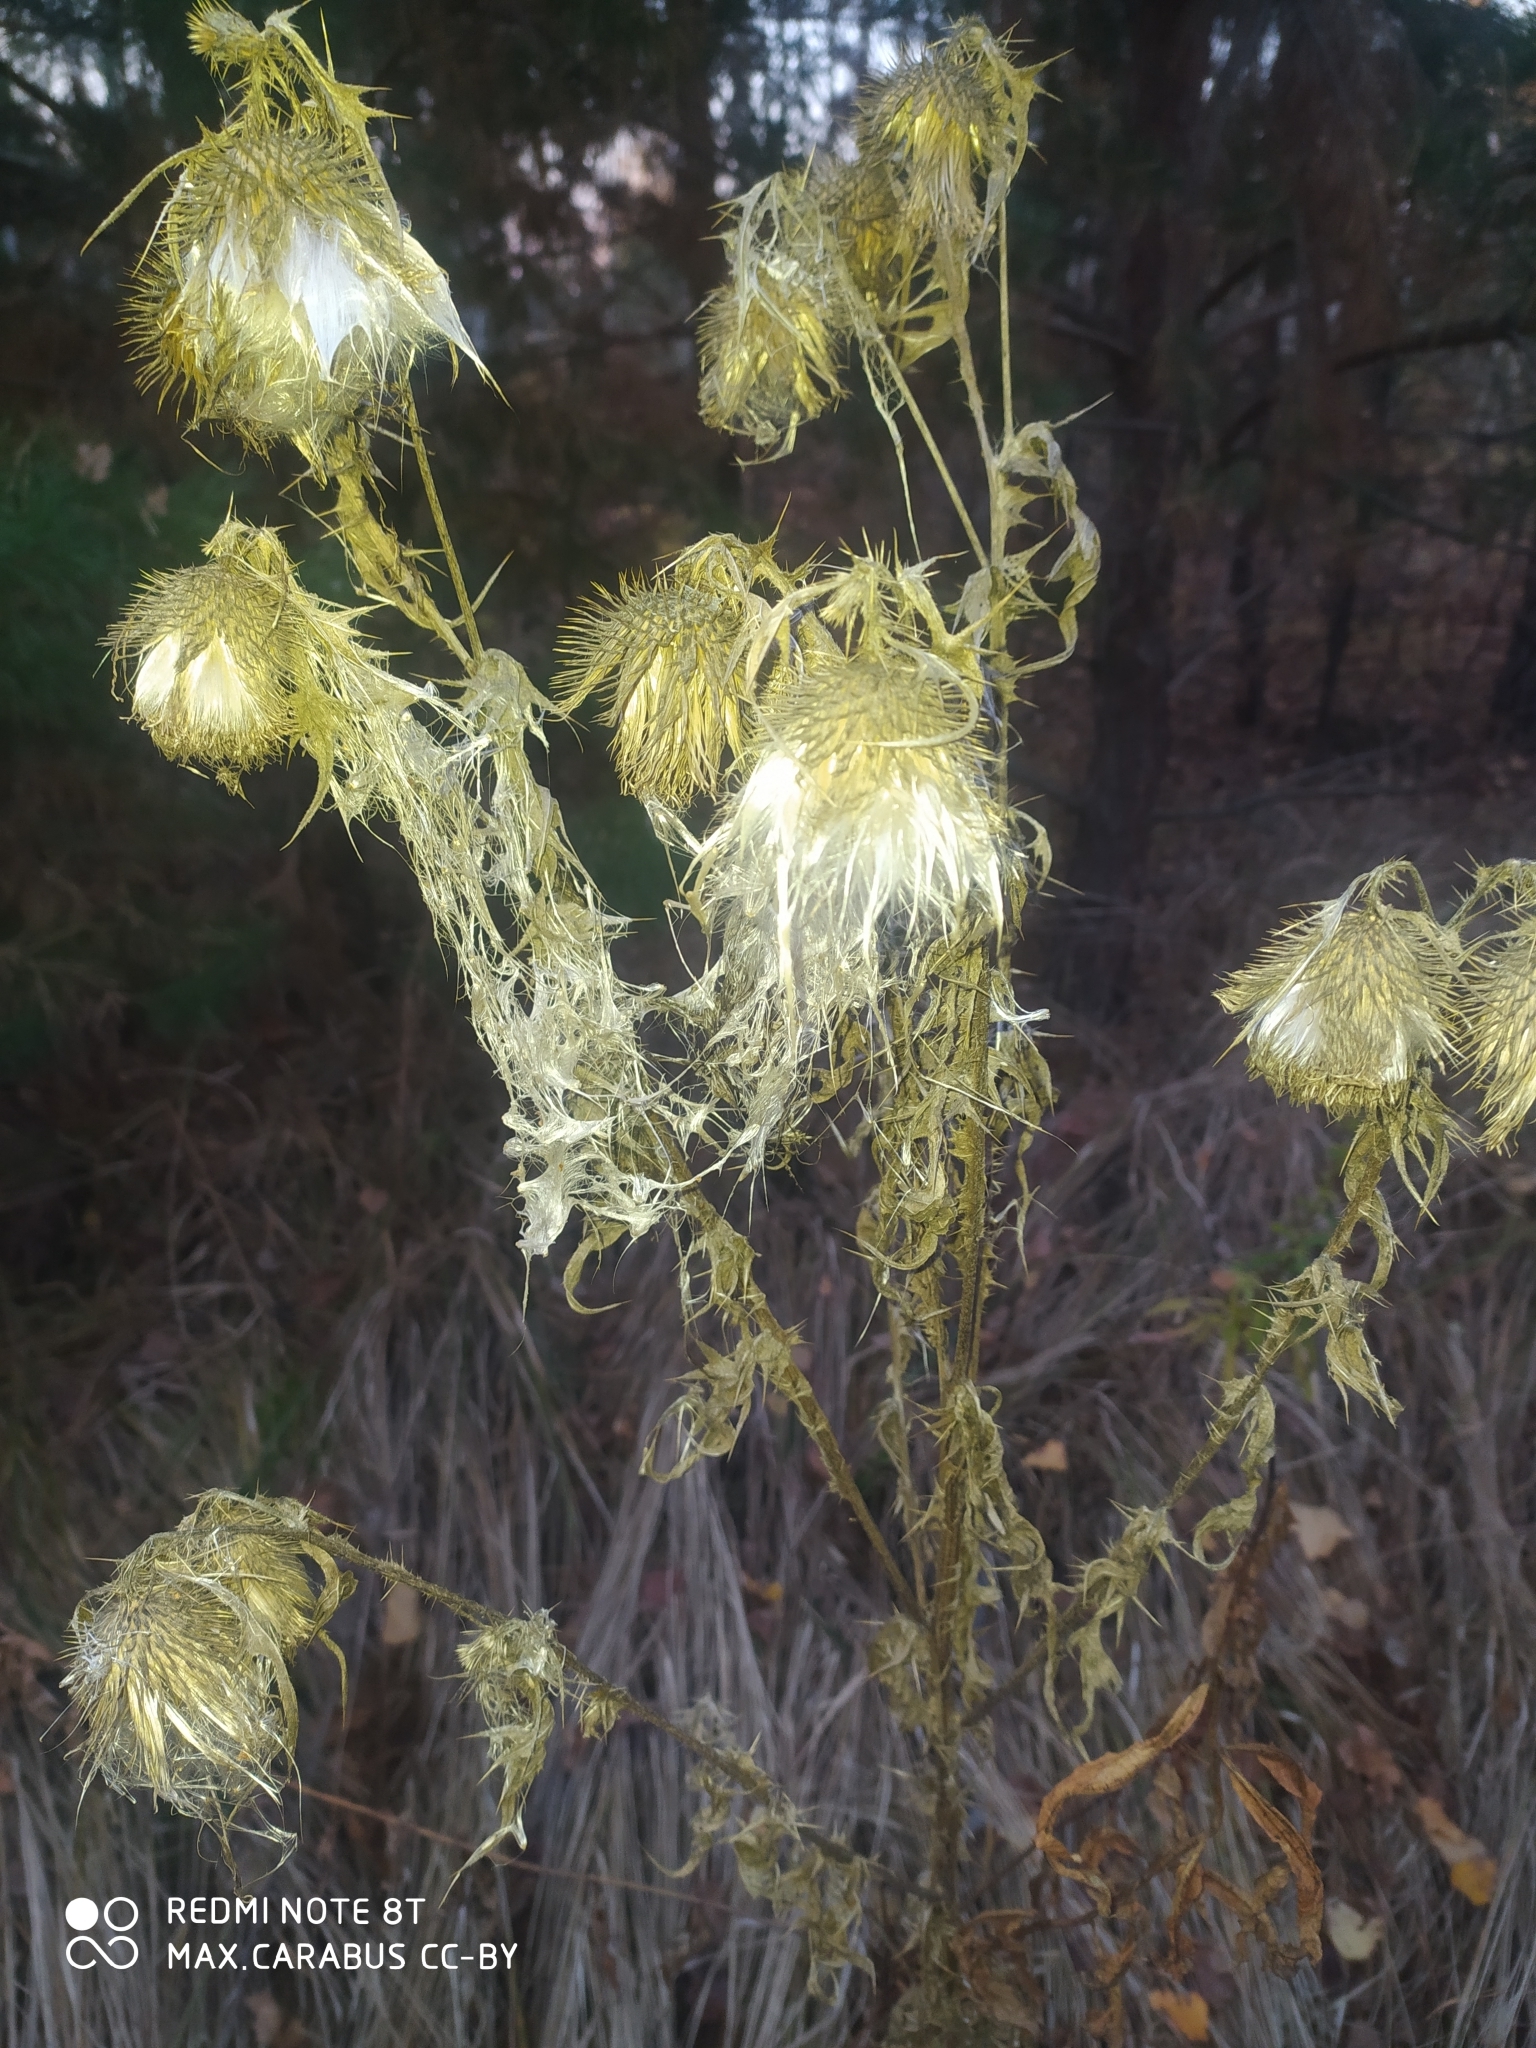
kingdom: Plantae
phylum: Tracheophyta
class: Magnoliopsida
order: Asterales
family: Asteraceae
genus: Cirsium
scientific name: Cirsium vulgare
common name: Bull thistle
